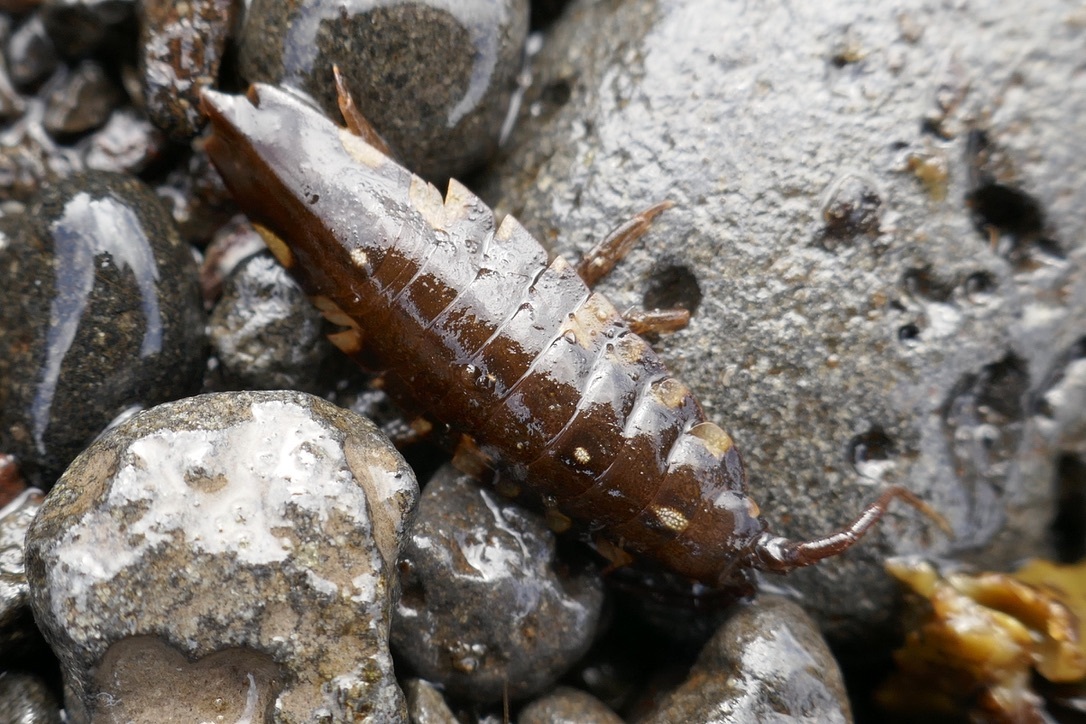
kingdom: Animalia
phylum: Arthropoda
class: Malacostraca
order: Isopoda
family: Idoteidae
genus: Idotea
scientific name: Idotea balthica
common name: Baltic isopod
